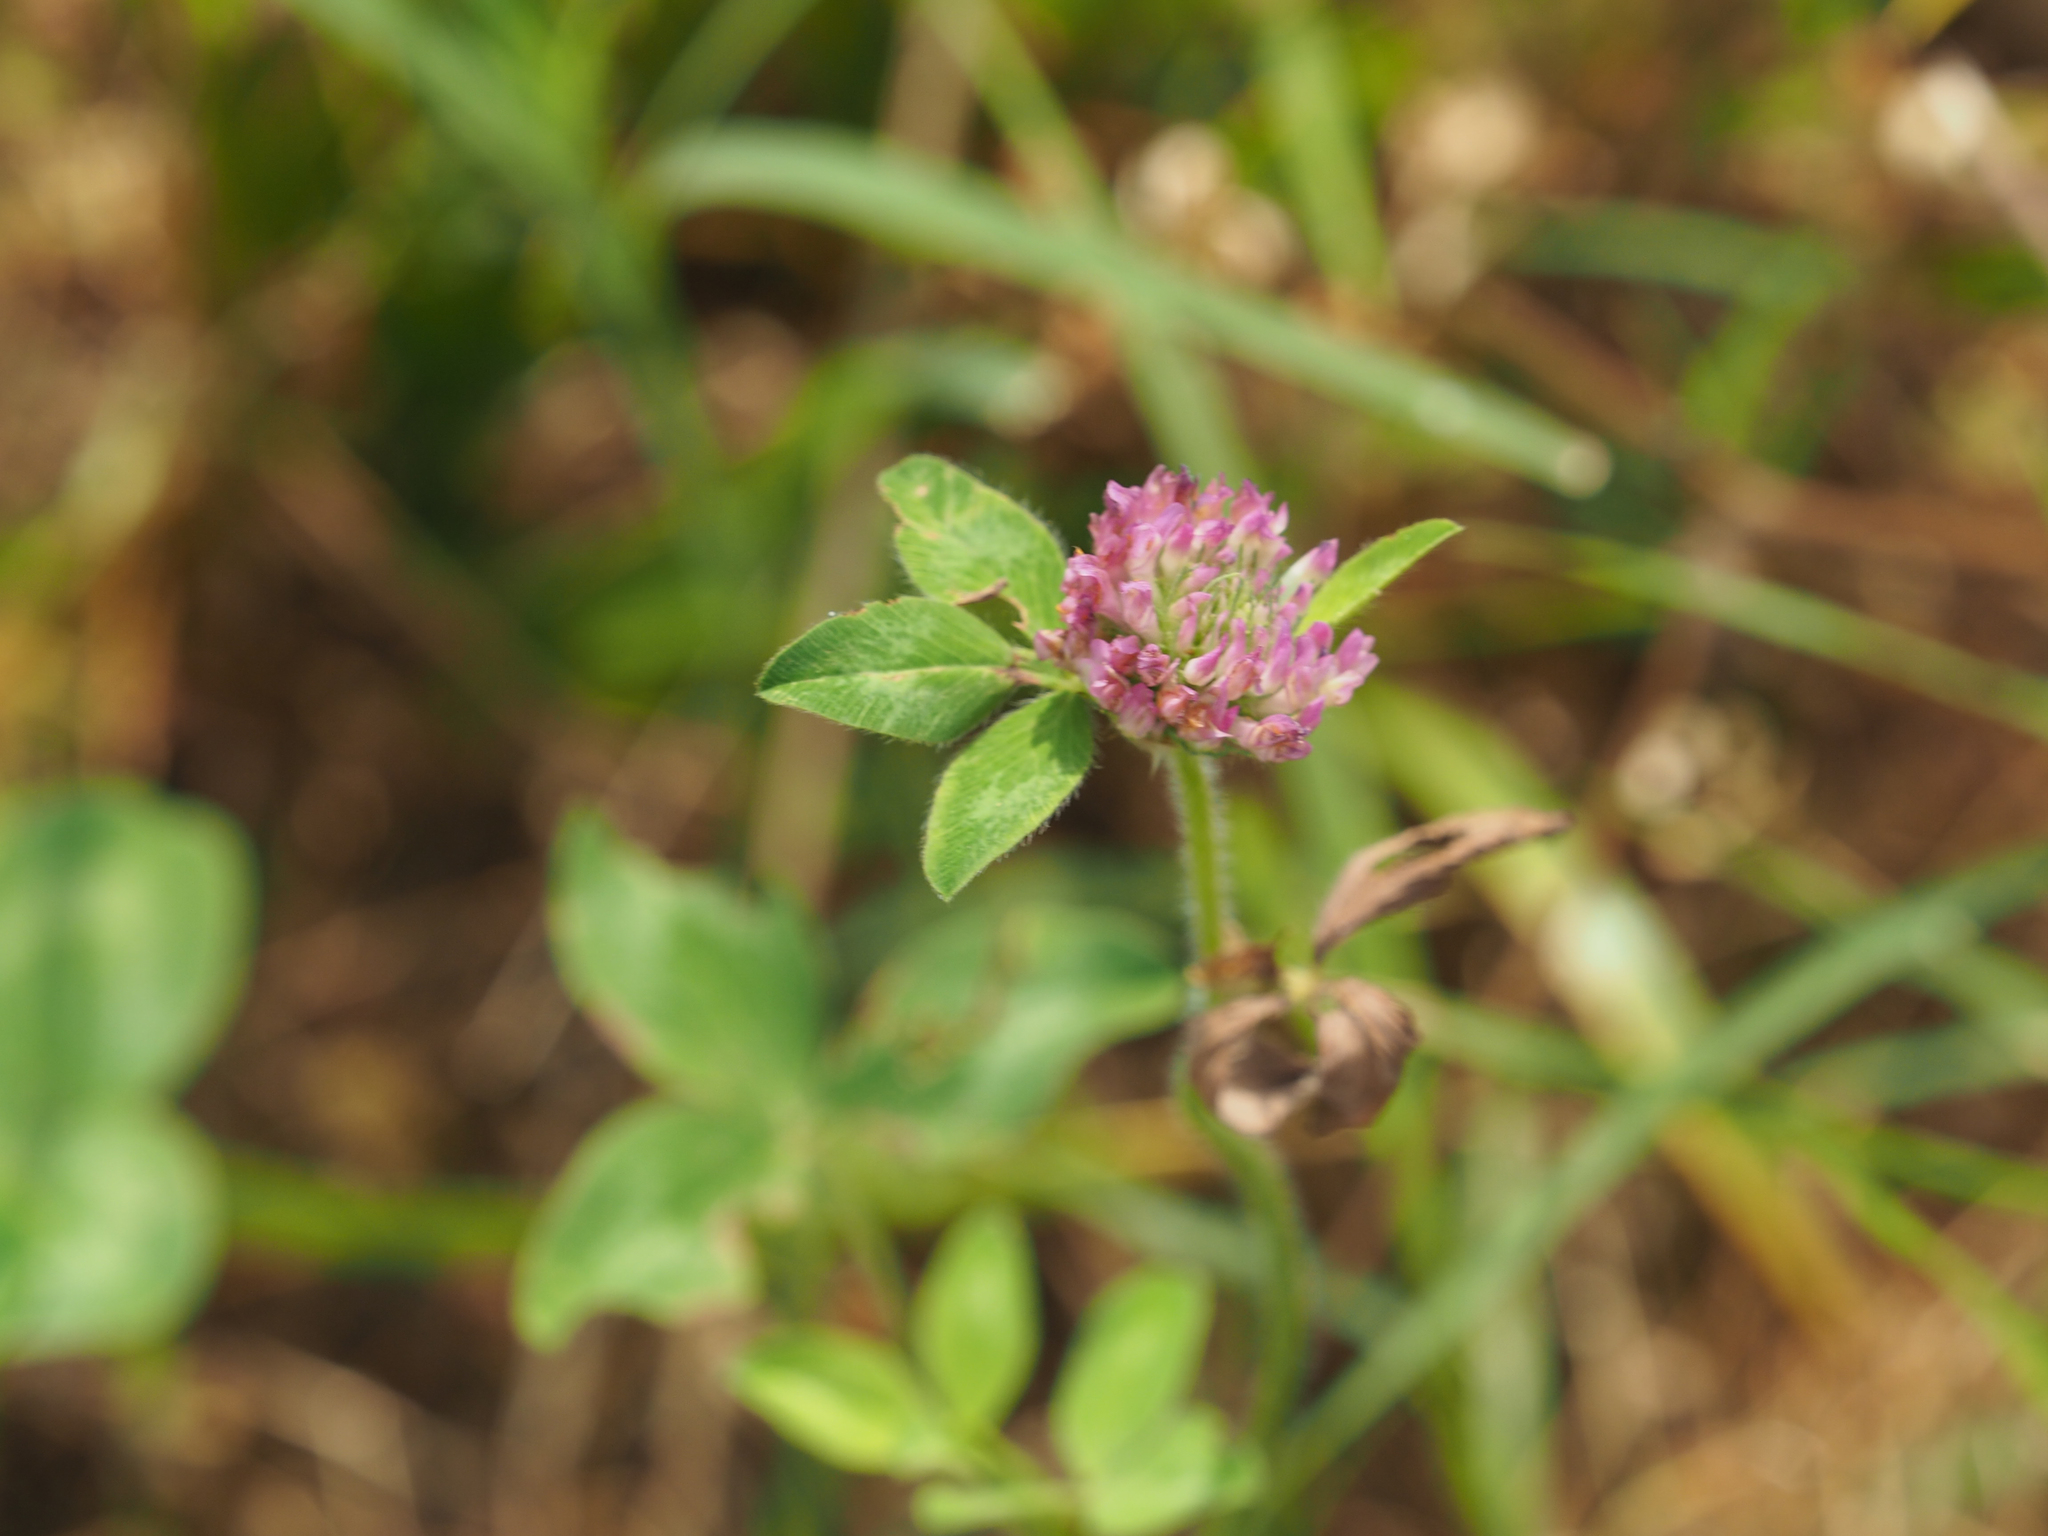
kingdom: Plantae
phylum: Tracheophyta
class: Magnoliopsida
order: Fabales
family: Fabaceae
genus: Trifolium
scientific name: Trifolium pratense
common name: Red clover
